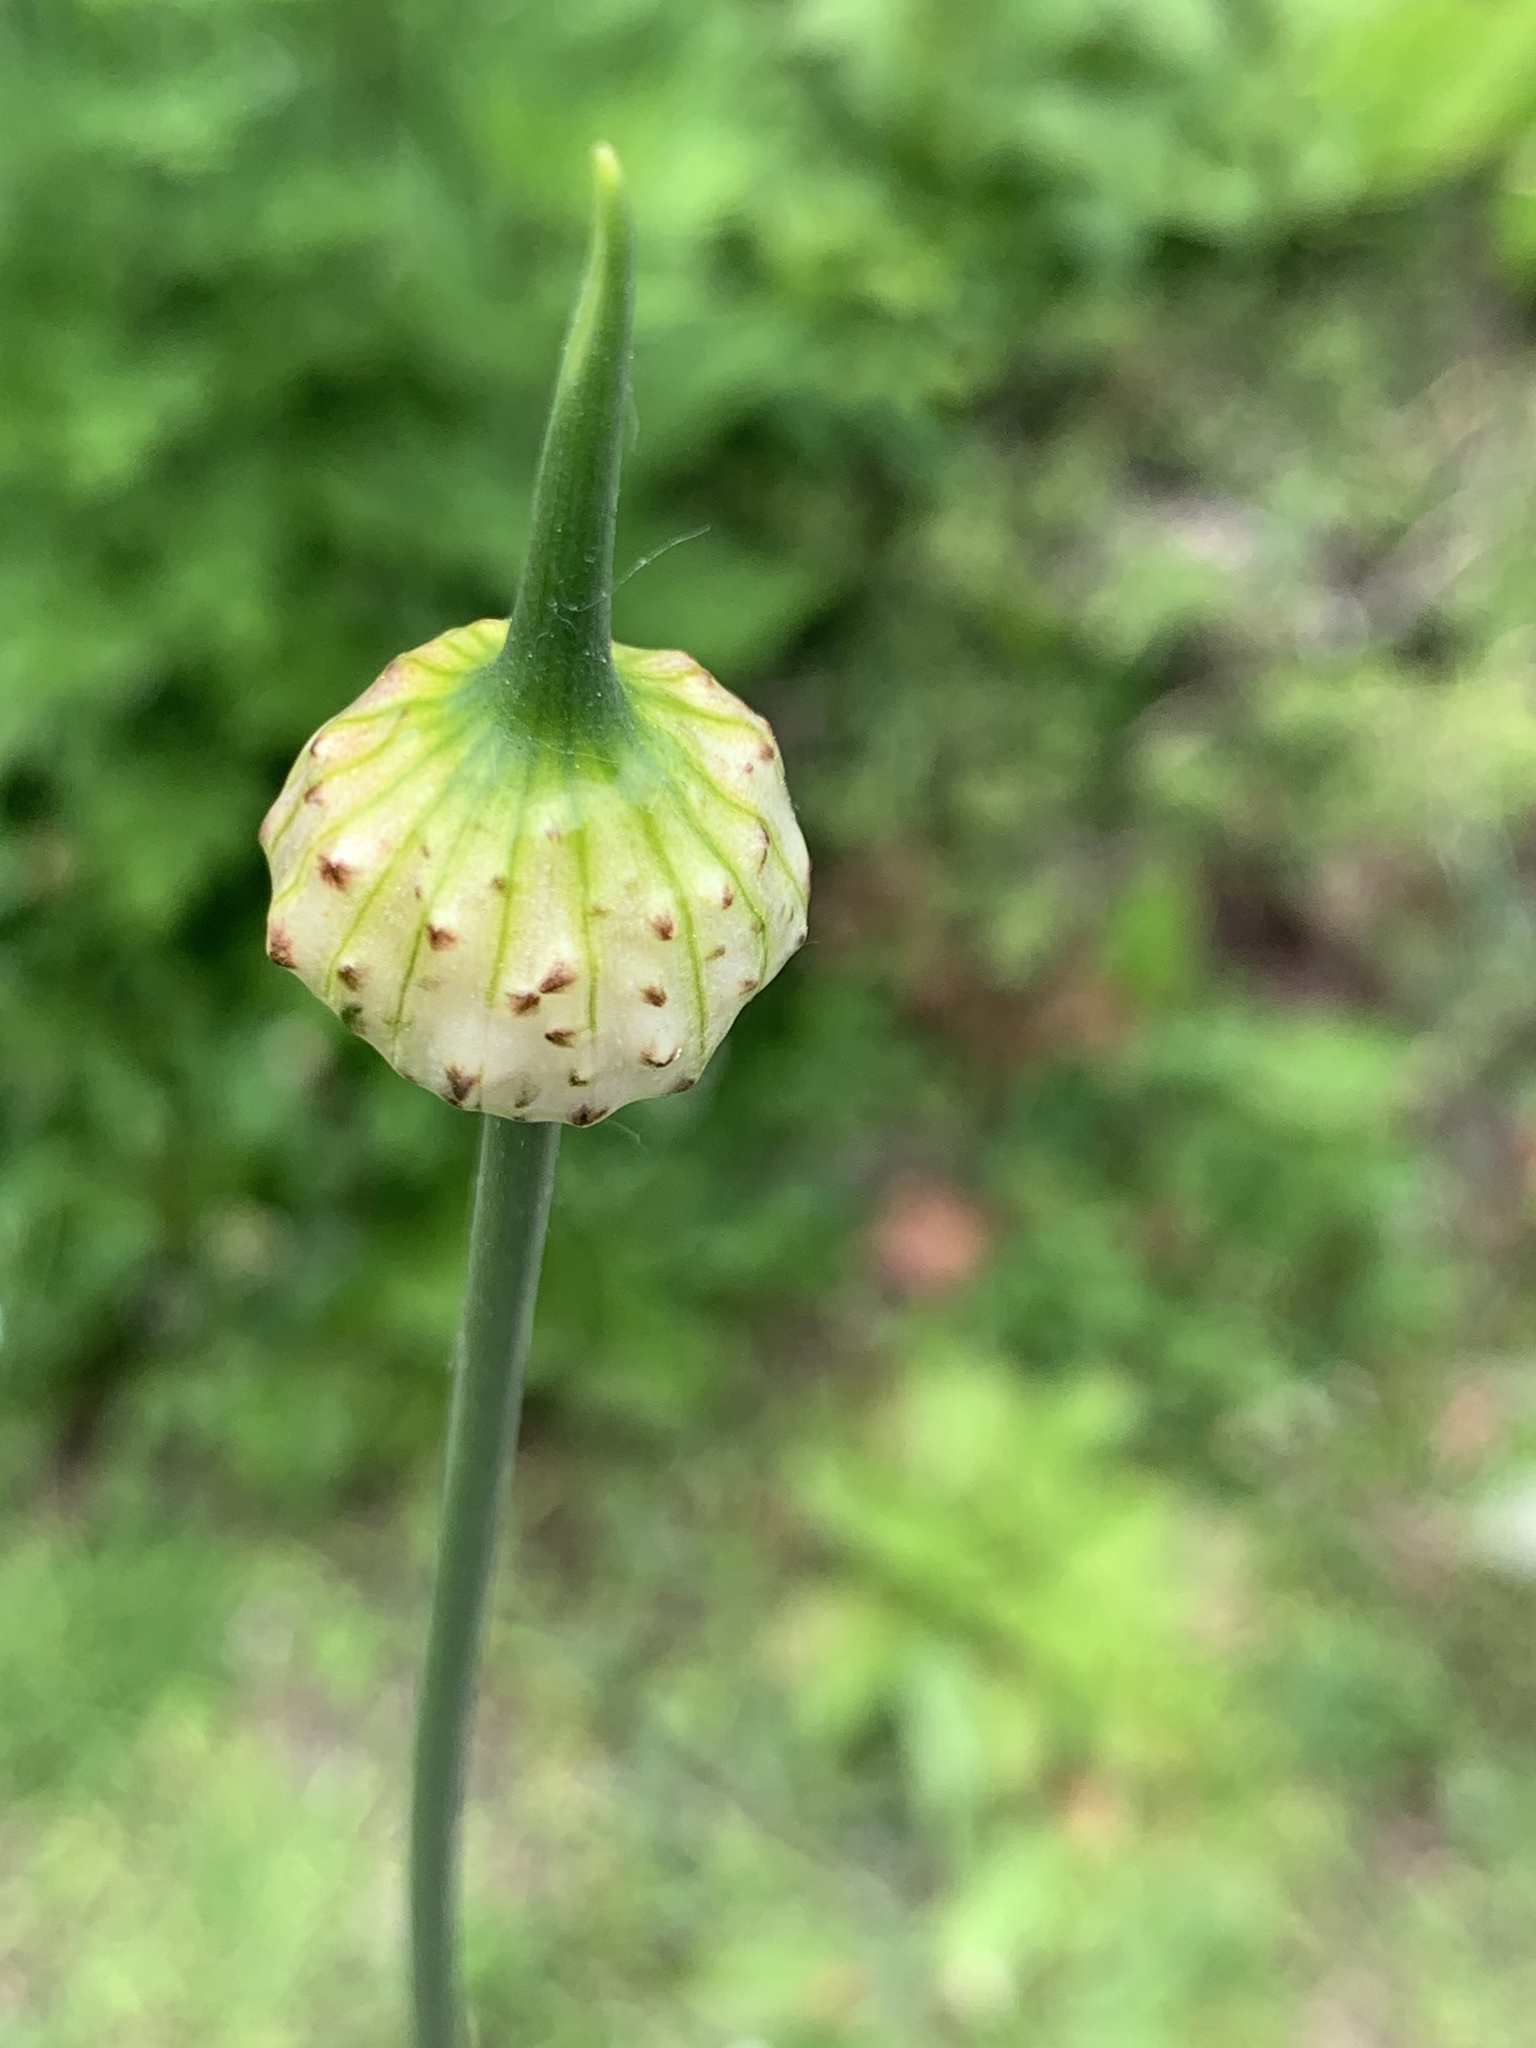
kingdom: Plantae
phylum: Tracheophyta
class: Liliopsida
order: Asparagales
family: Amaryllidaceae
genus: Allium
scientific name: Allium vineale
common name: Crow garlic
